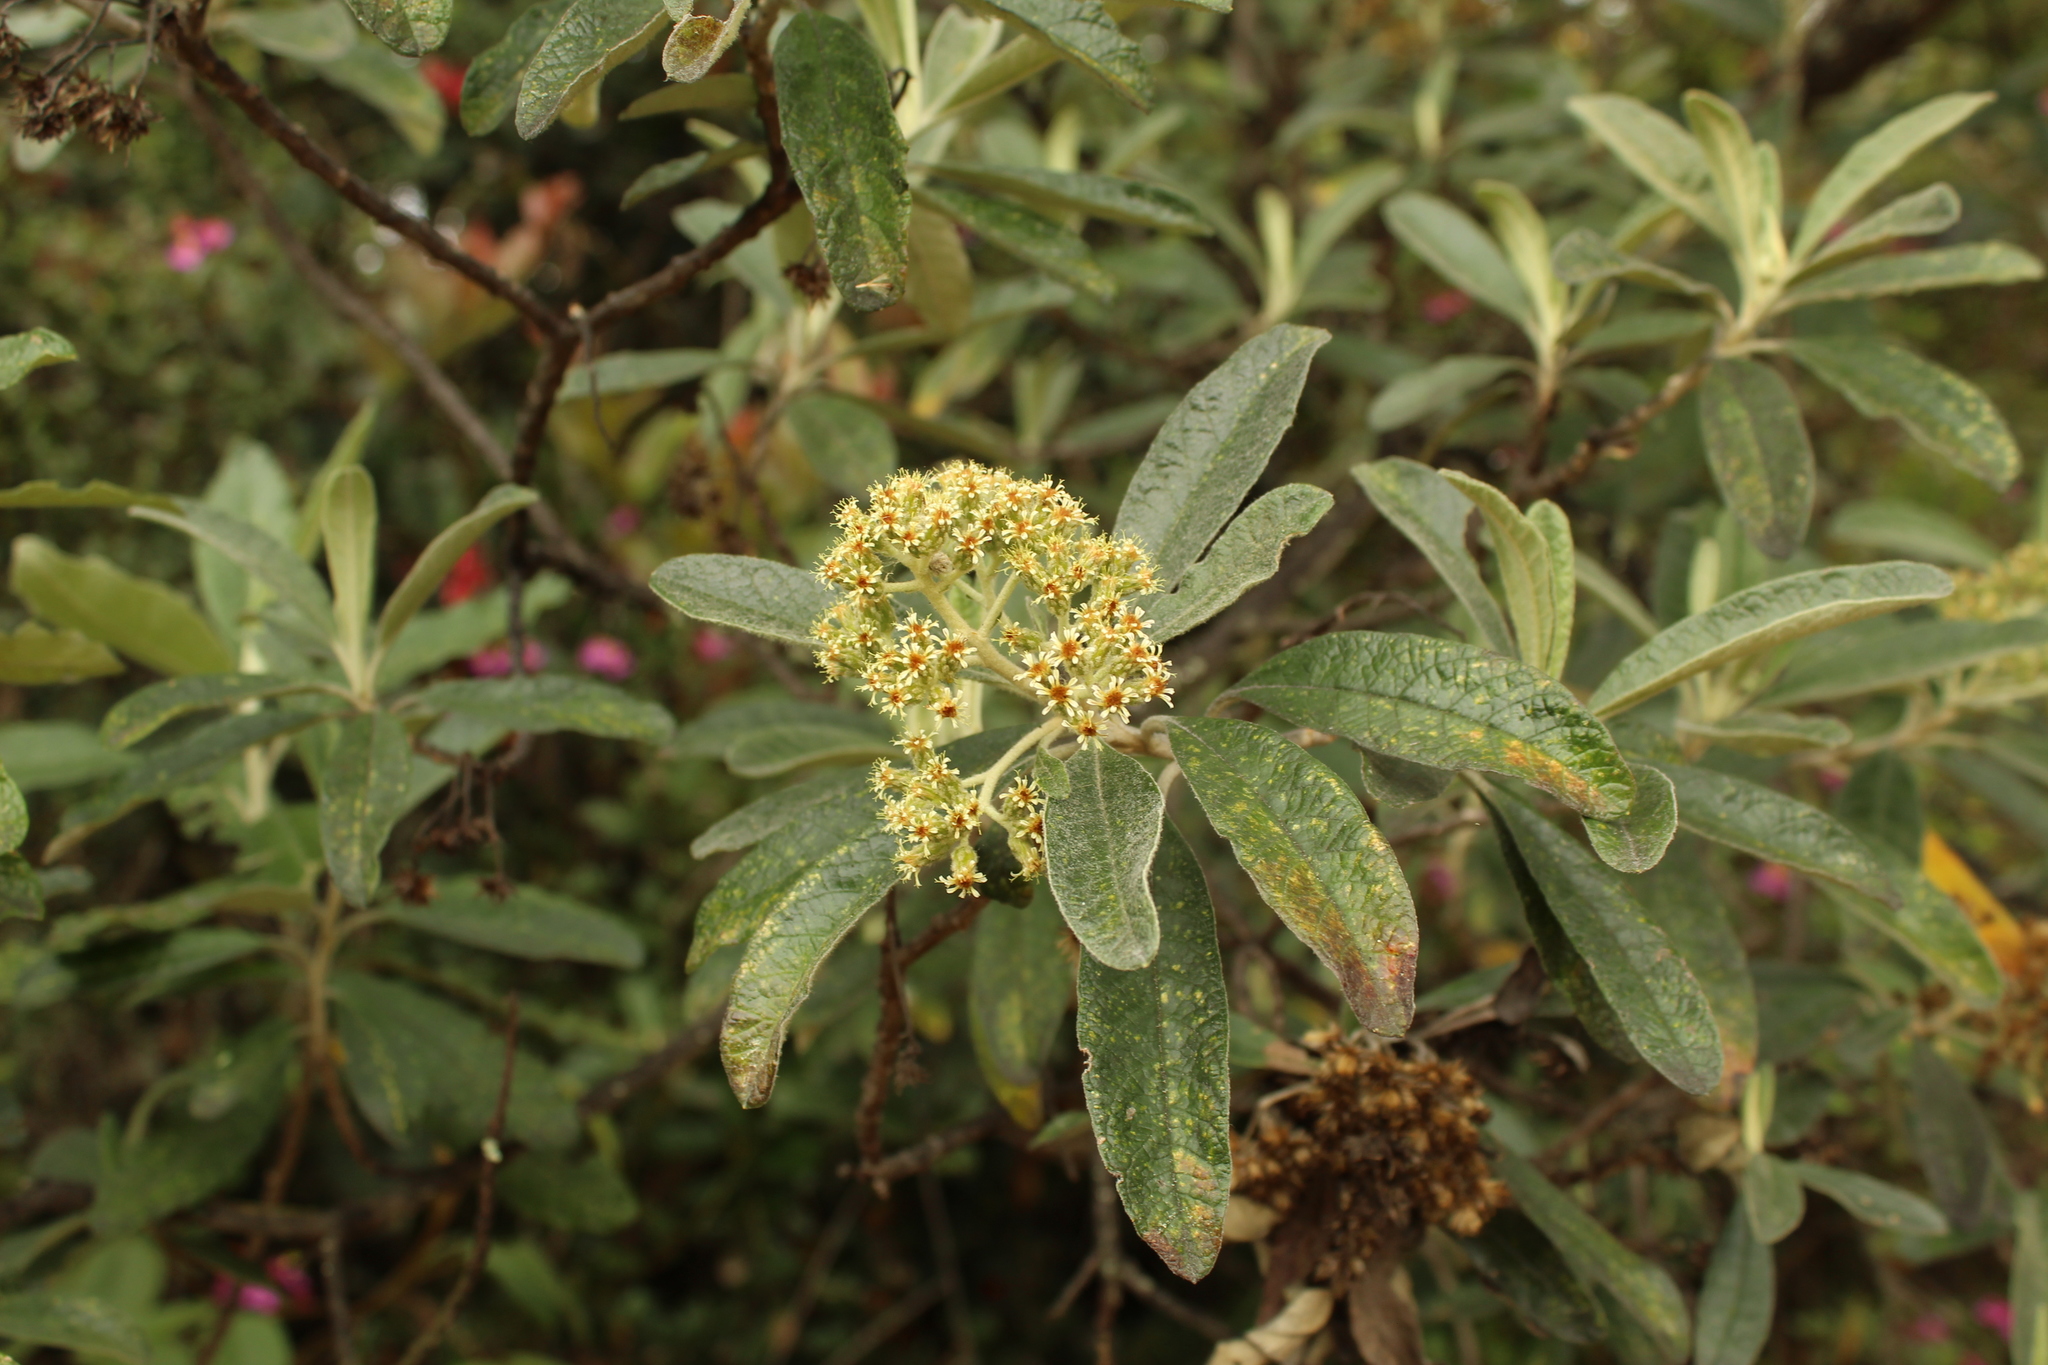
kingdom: Plantae
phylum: Tracheophyta
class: Magnoliopsida
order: Asterales
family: Asteraceae
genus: Linochilus
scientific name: Linochilus tenuifolius
